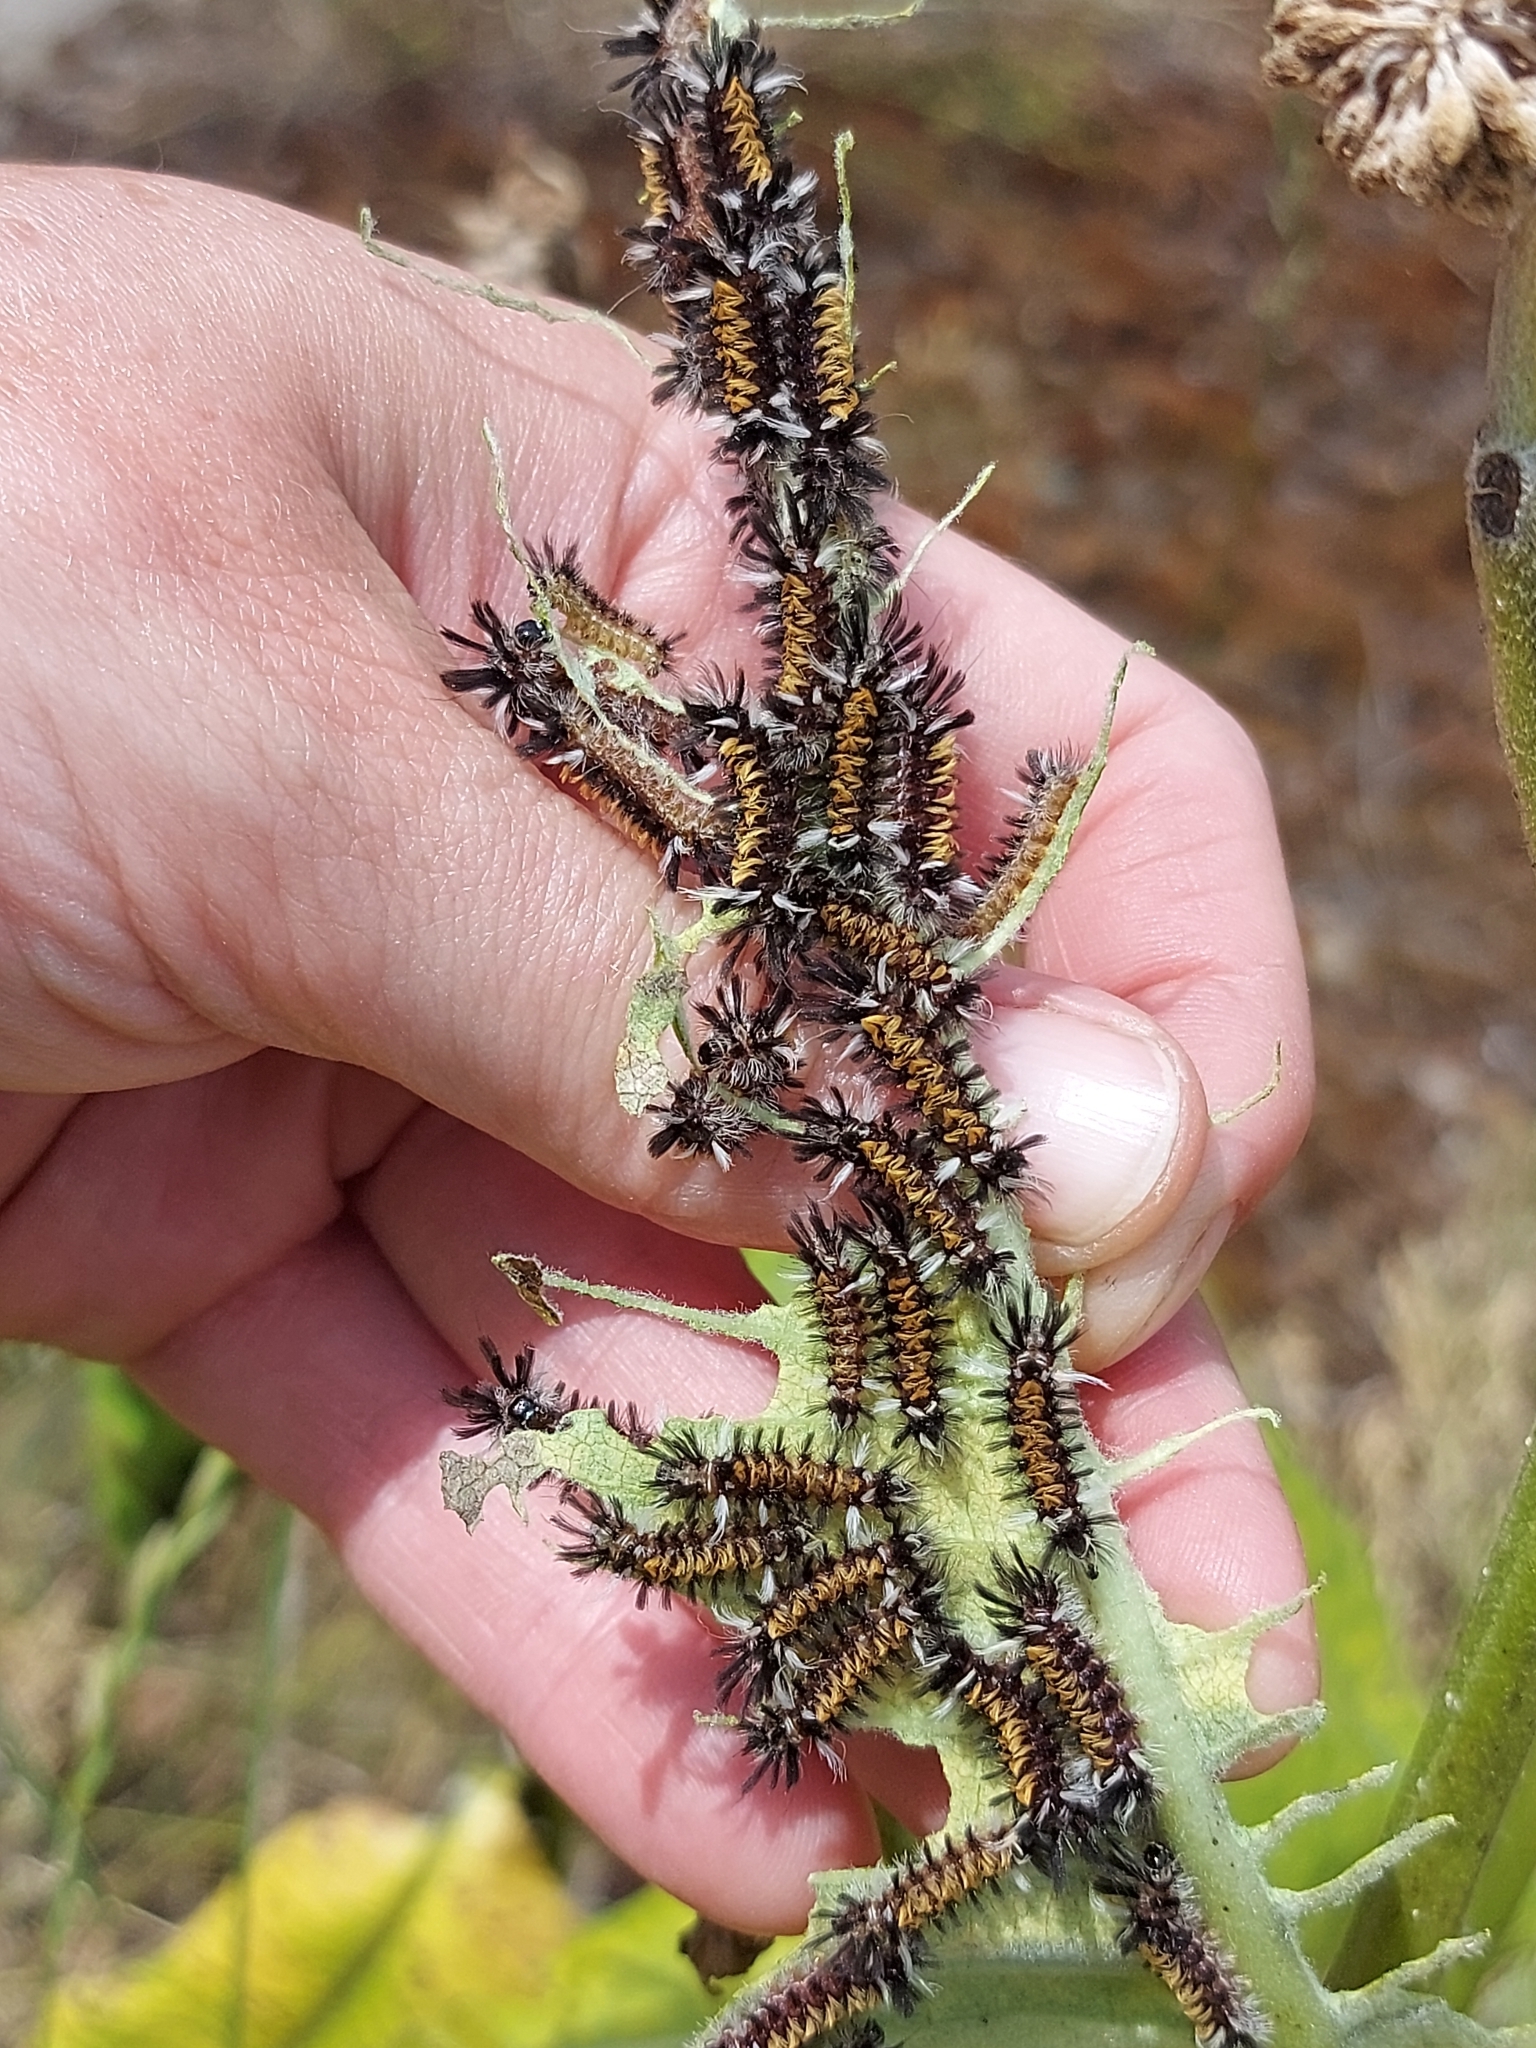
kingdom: Animalia
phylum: Arthropoda
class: Insecta
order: Lepidoptera
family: Erebidae
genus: Euchaetes
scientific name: Euchaetes egle
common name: Milkweed tussock moth
